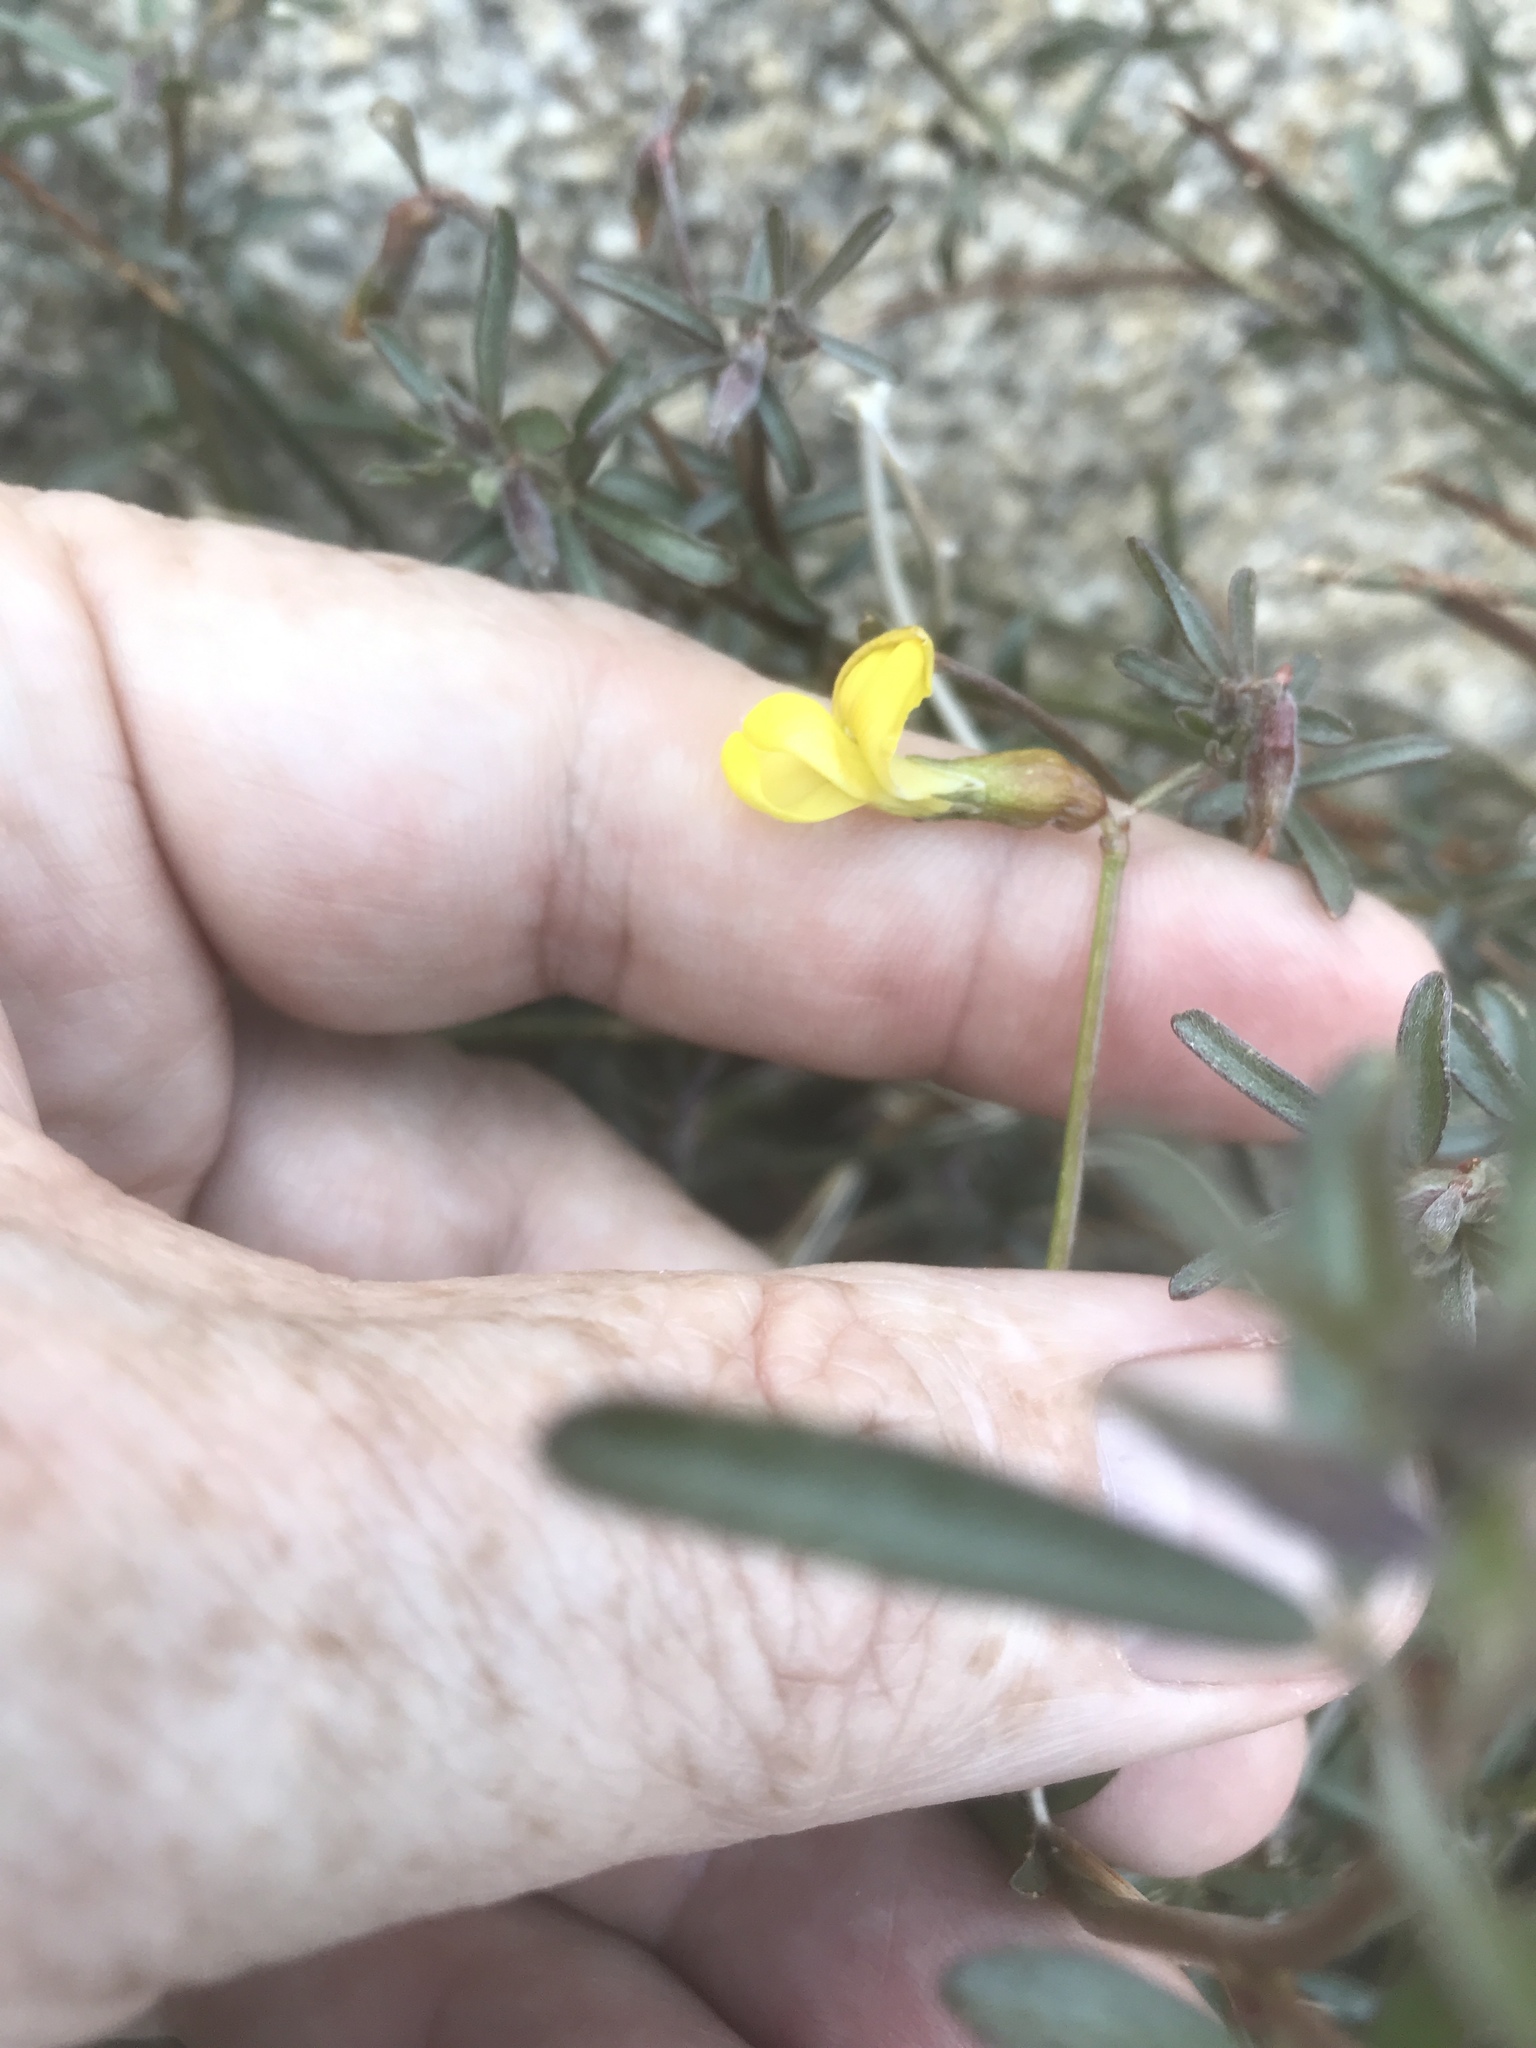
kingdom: Plantae
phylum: Tracheophyta
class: Magnoliopsida
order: Fabales
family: Fabaceae
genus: Acmispon
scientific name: Acmispon rigidus
